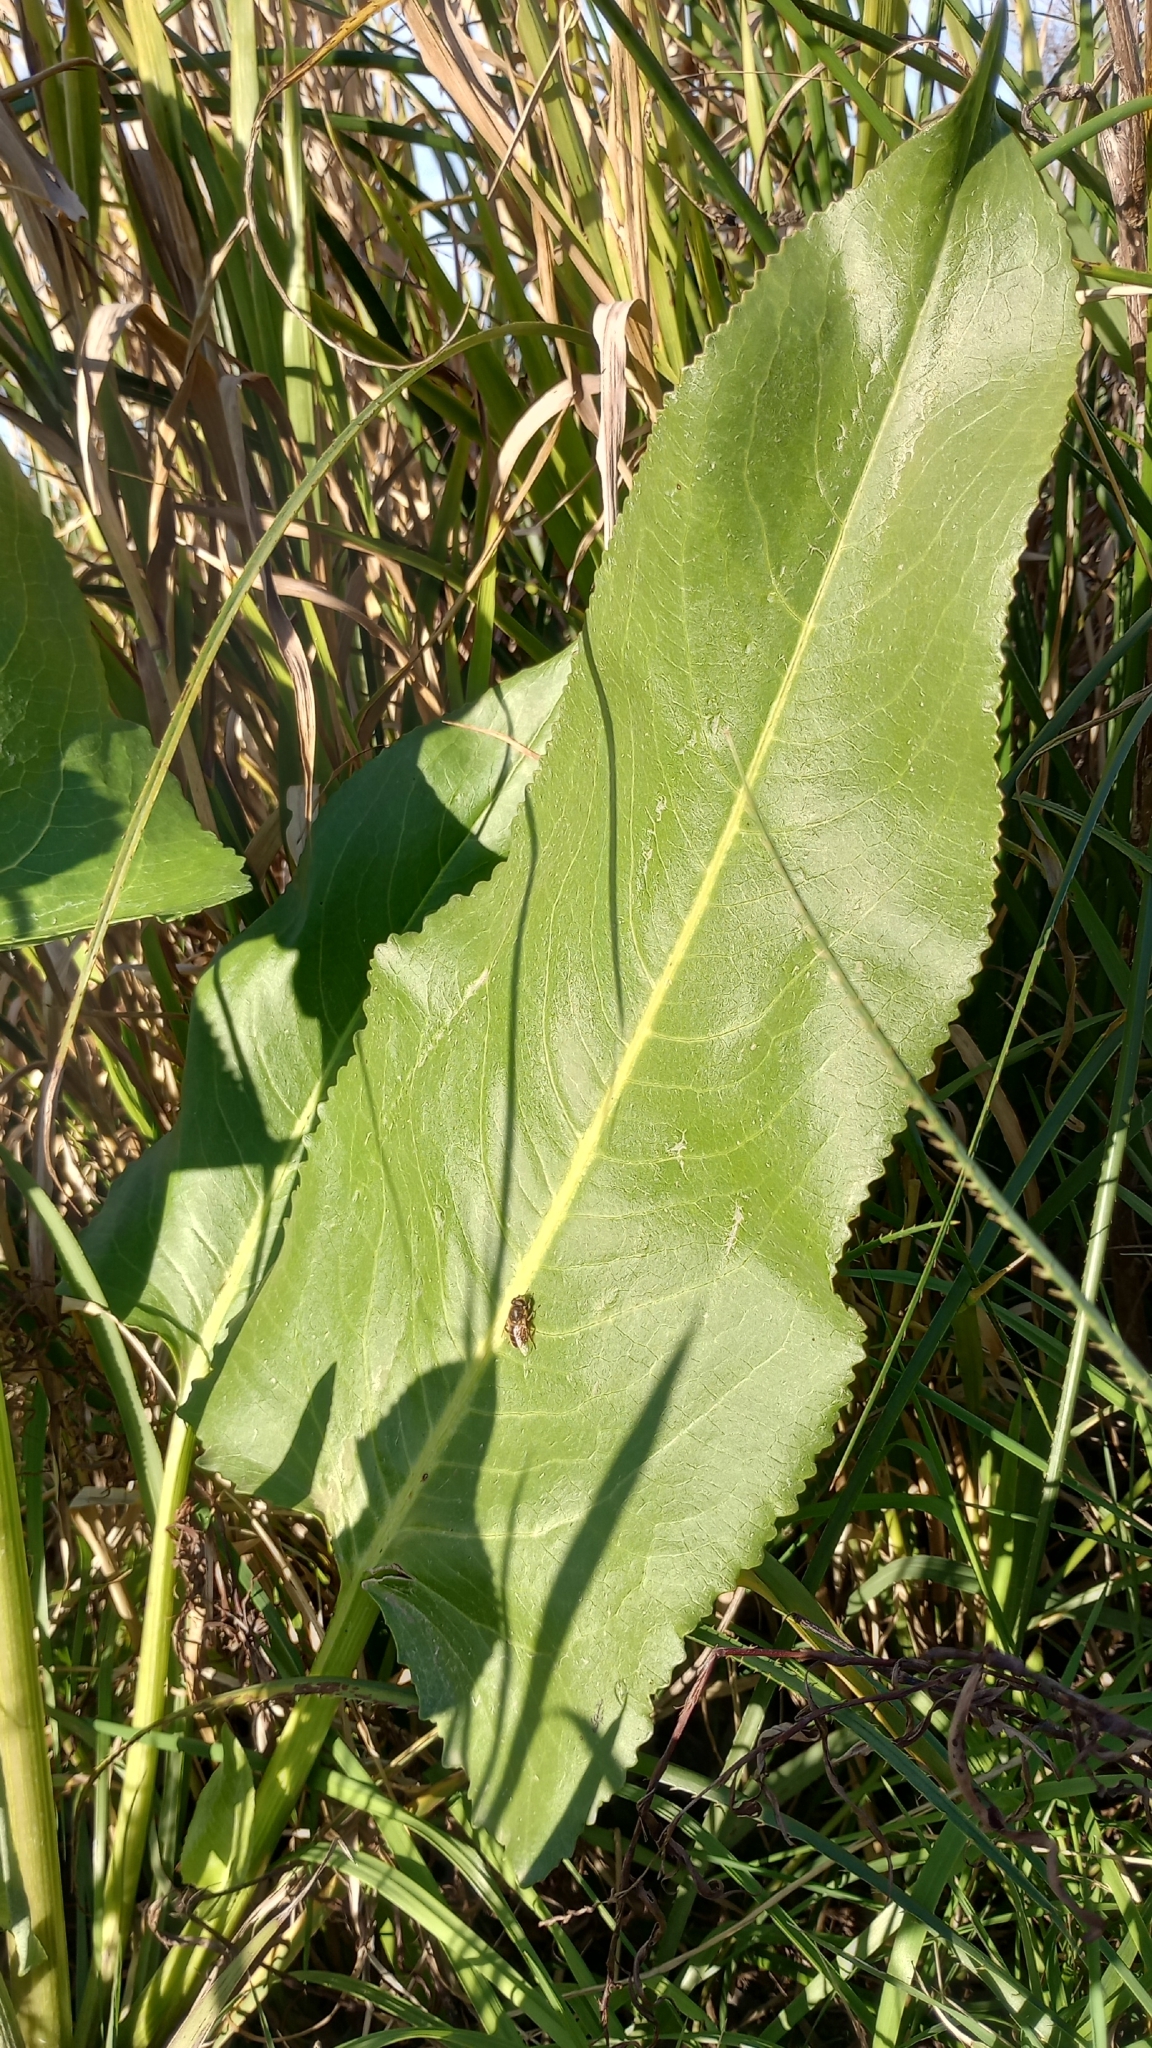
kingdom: Plantae
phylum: Tracheophyta
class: Magnoliopsida
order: Asterales
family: Asteraceae
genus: Senecio
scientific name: Senecio bonariensis
